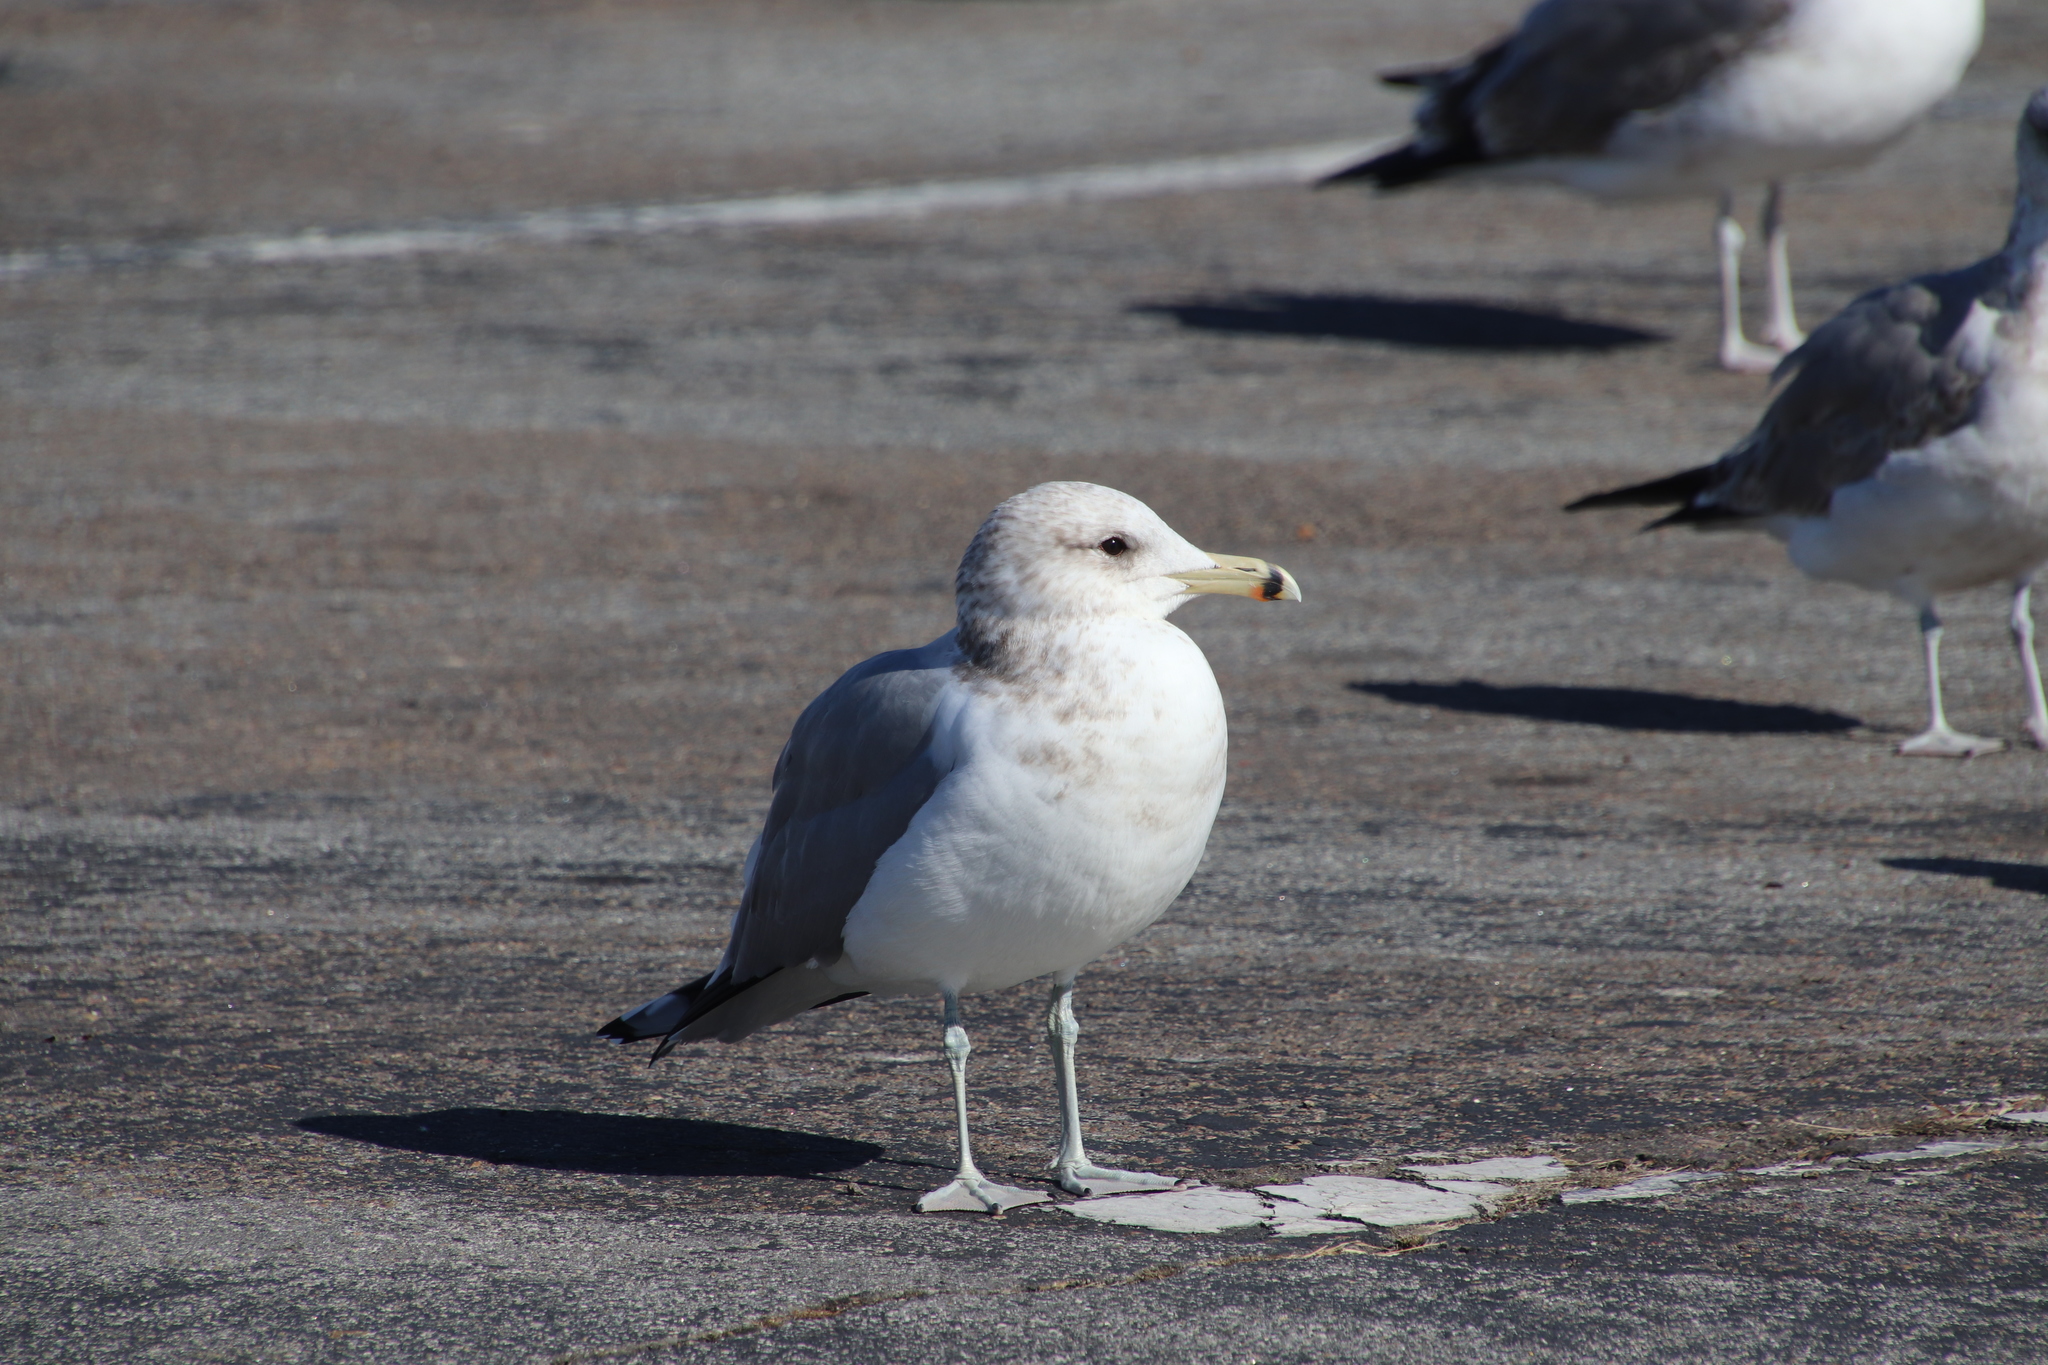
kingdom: Animalia
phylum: Chordata
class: Aves
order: Charadriiformes
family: Laridae
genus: Larus
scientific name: Larus californicus
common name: California gull
